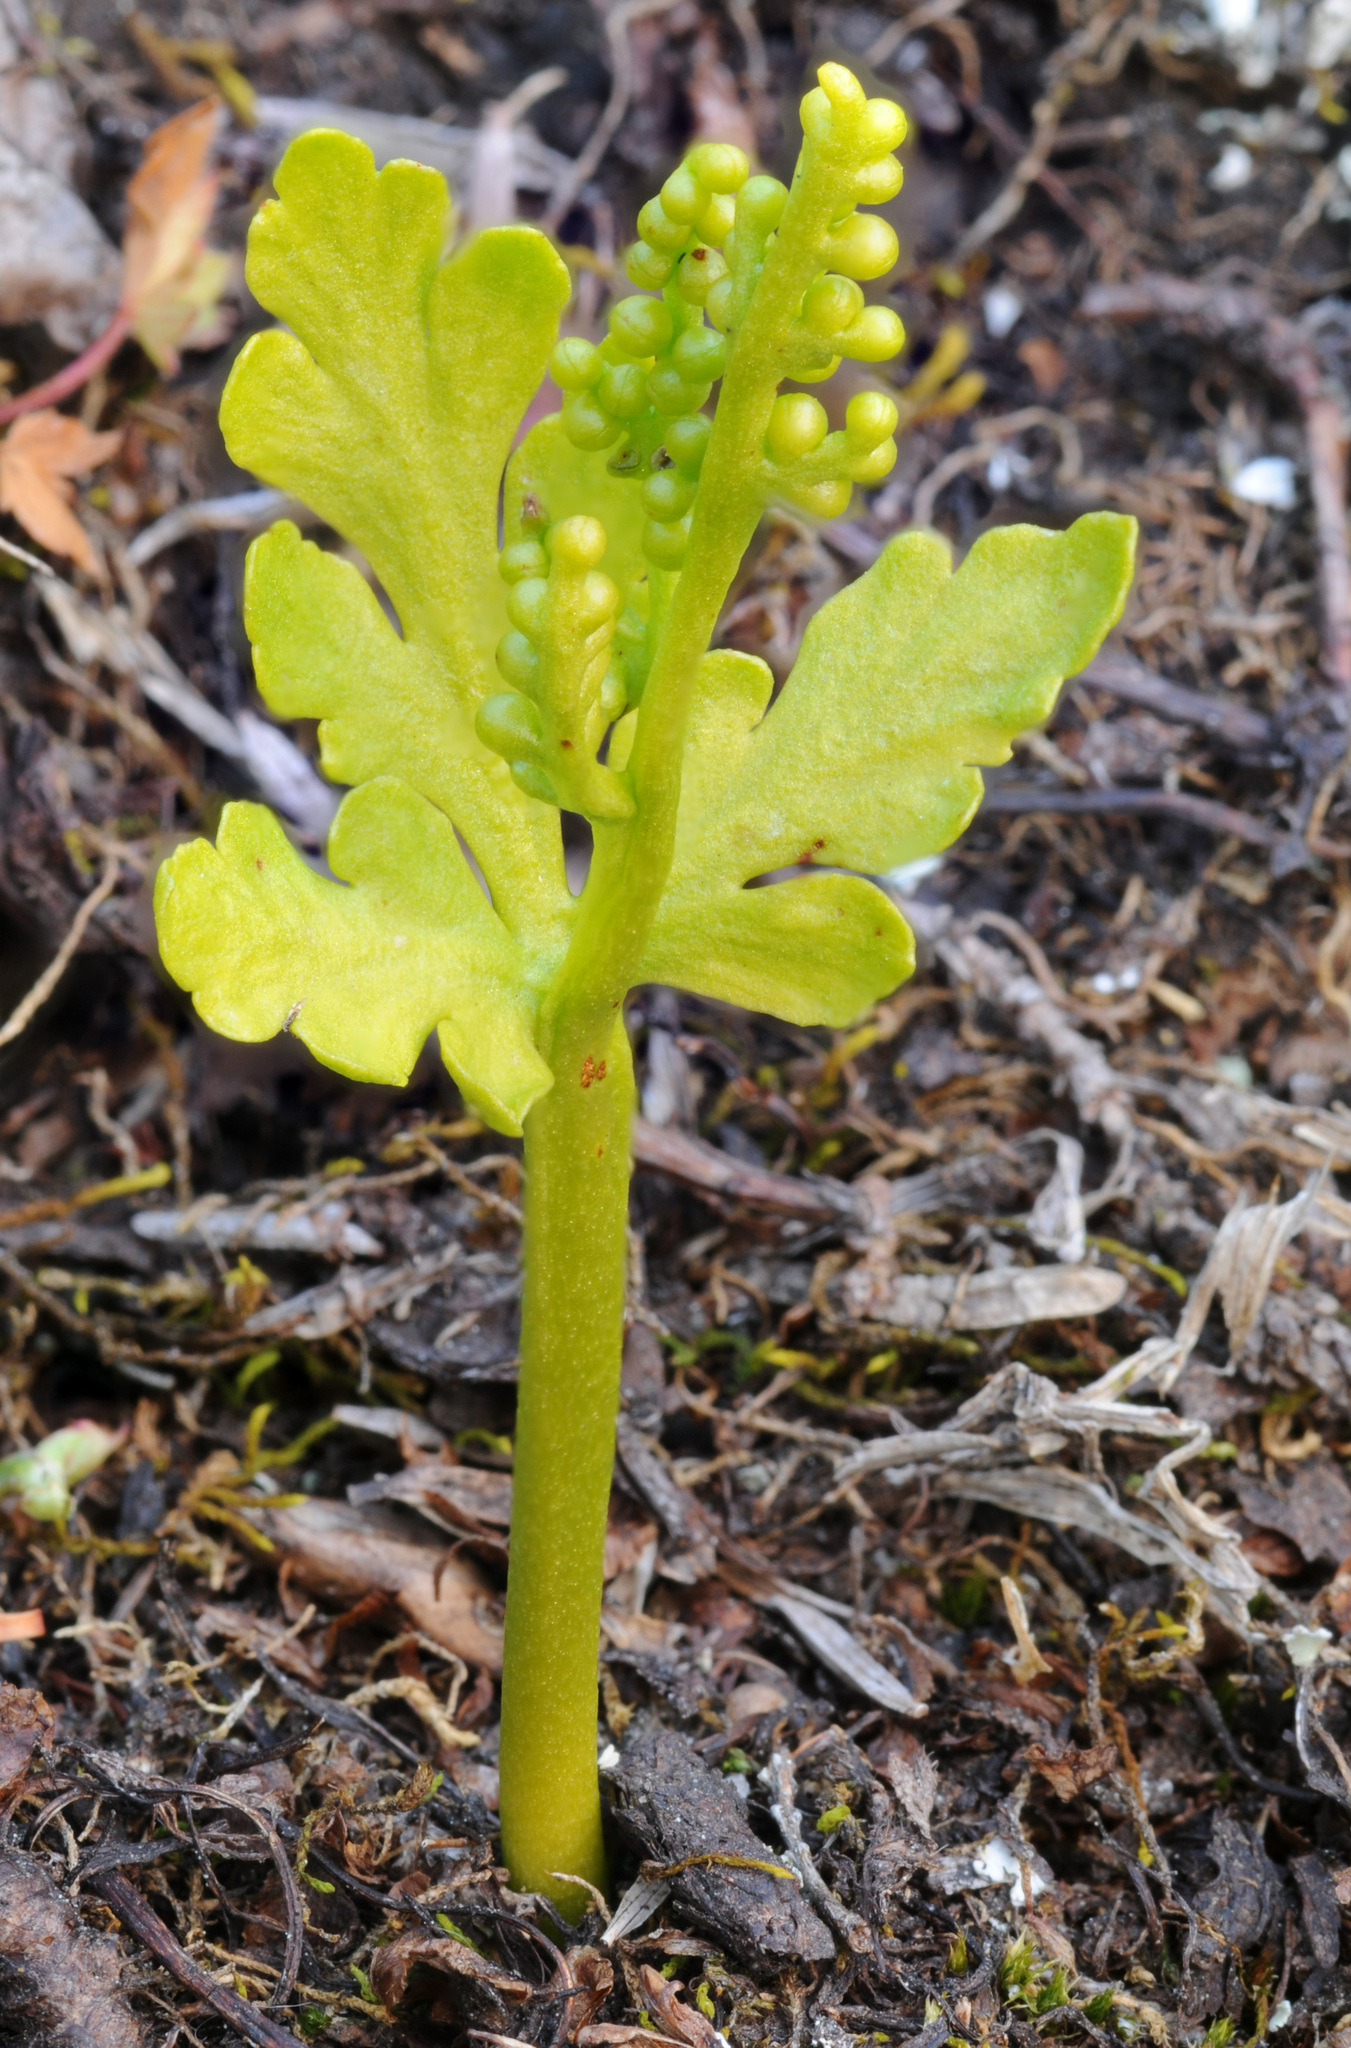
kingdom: Plantae
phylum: Tracheophyta
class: Polypodiopsida
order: Ophioglossales
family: Ophioglossaceae
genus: Botrychium
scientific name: Botrychium lanceolatum
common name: Lance-leaved moonwort
